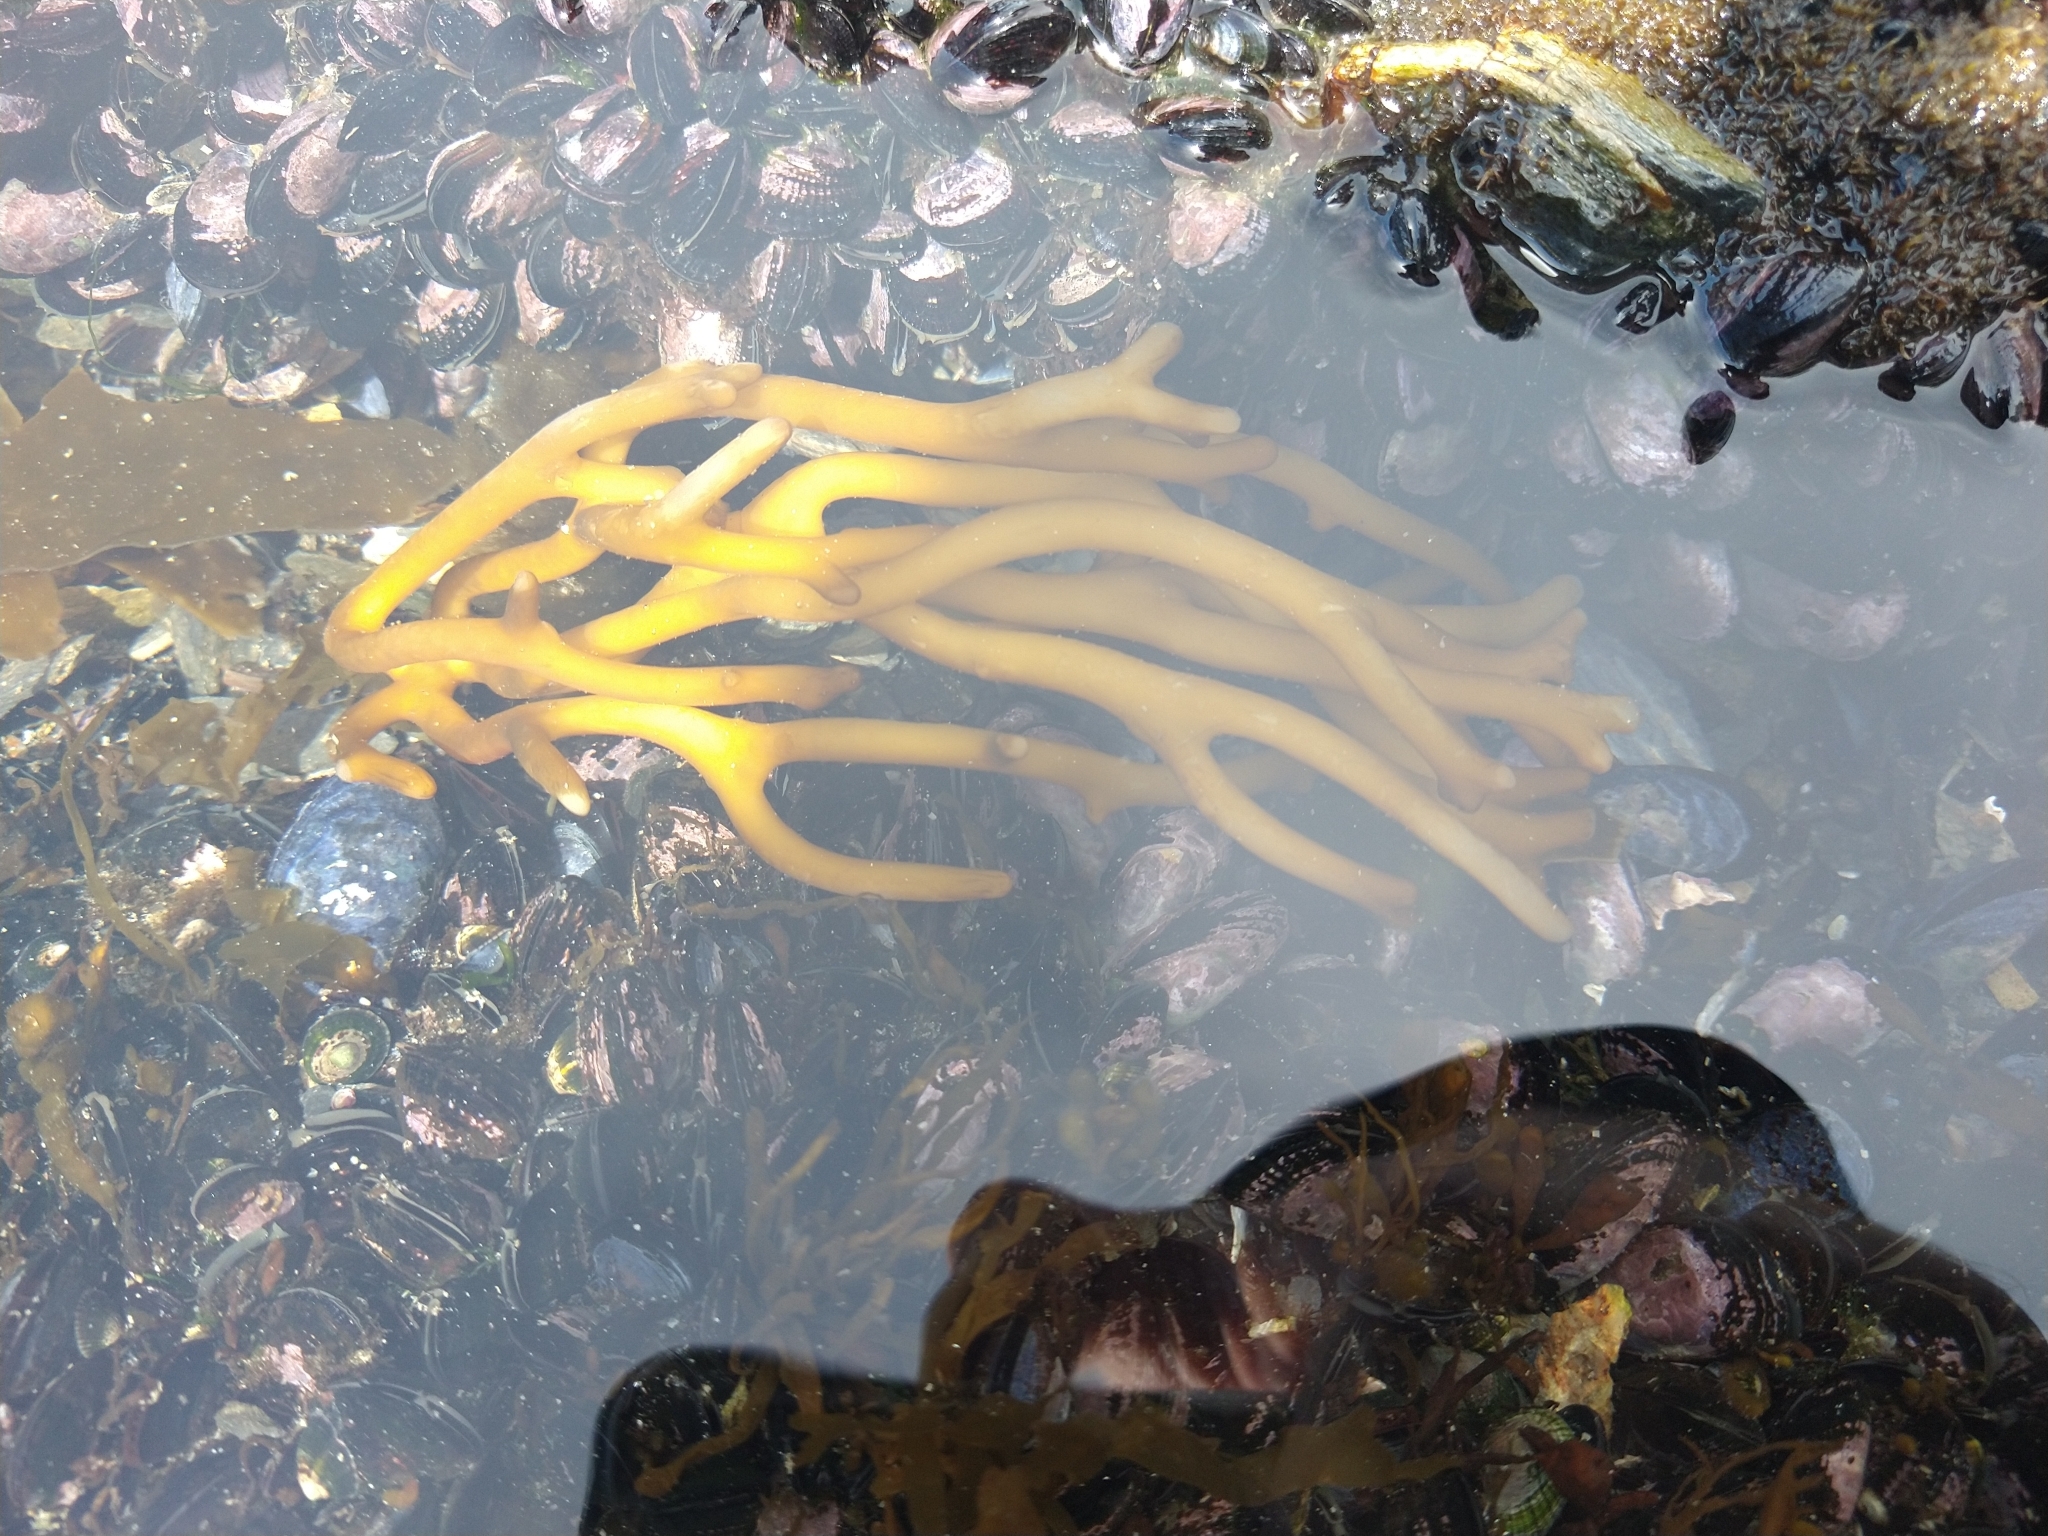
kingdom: Chromista
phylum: Ochrophyta
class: Phaeophyceae
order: Laminariales
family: Laminariaceae
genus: Macrocystis
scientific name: Macrocystis pyrifera
